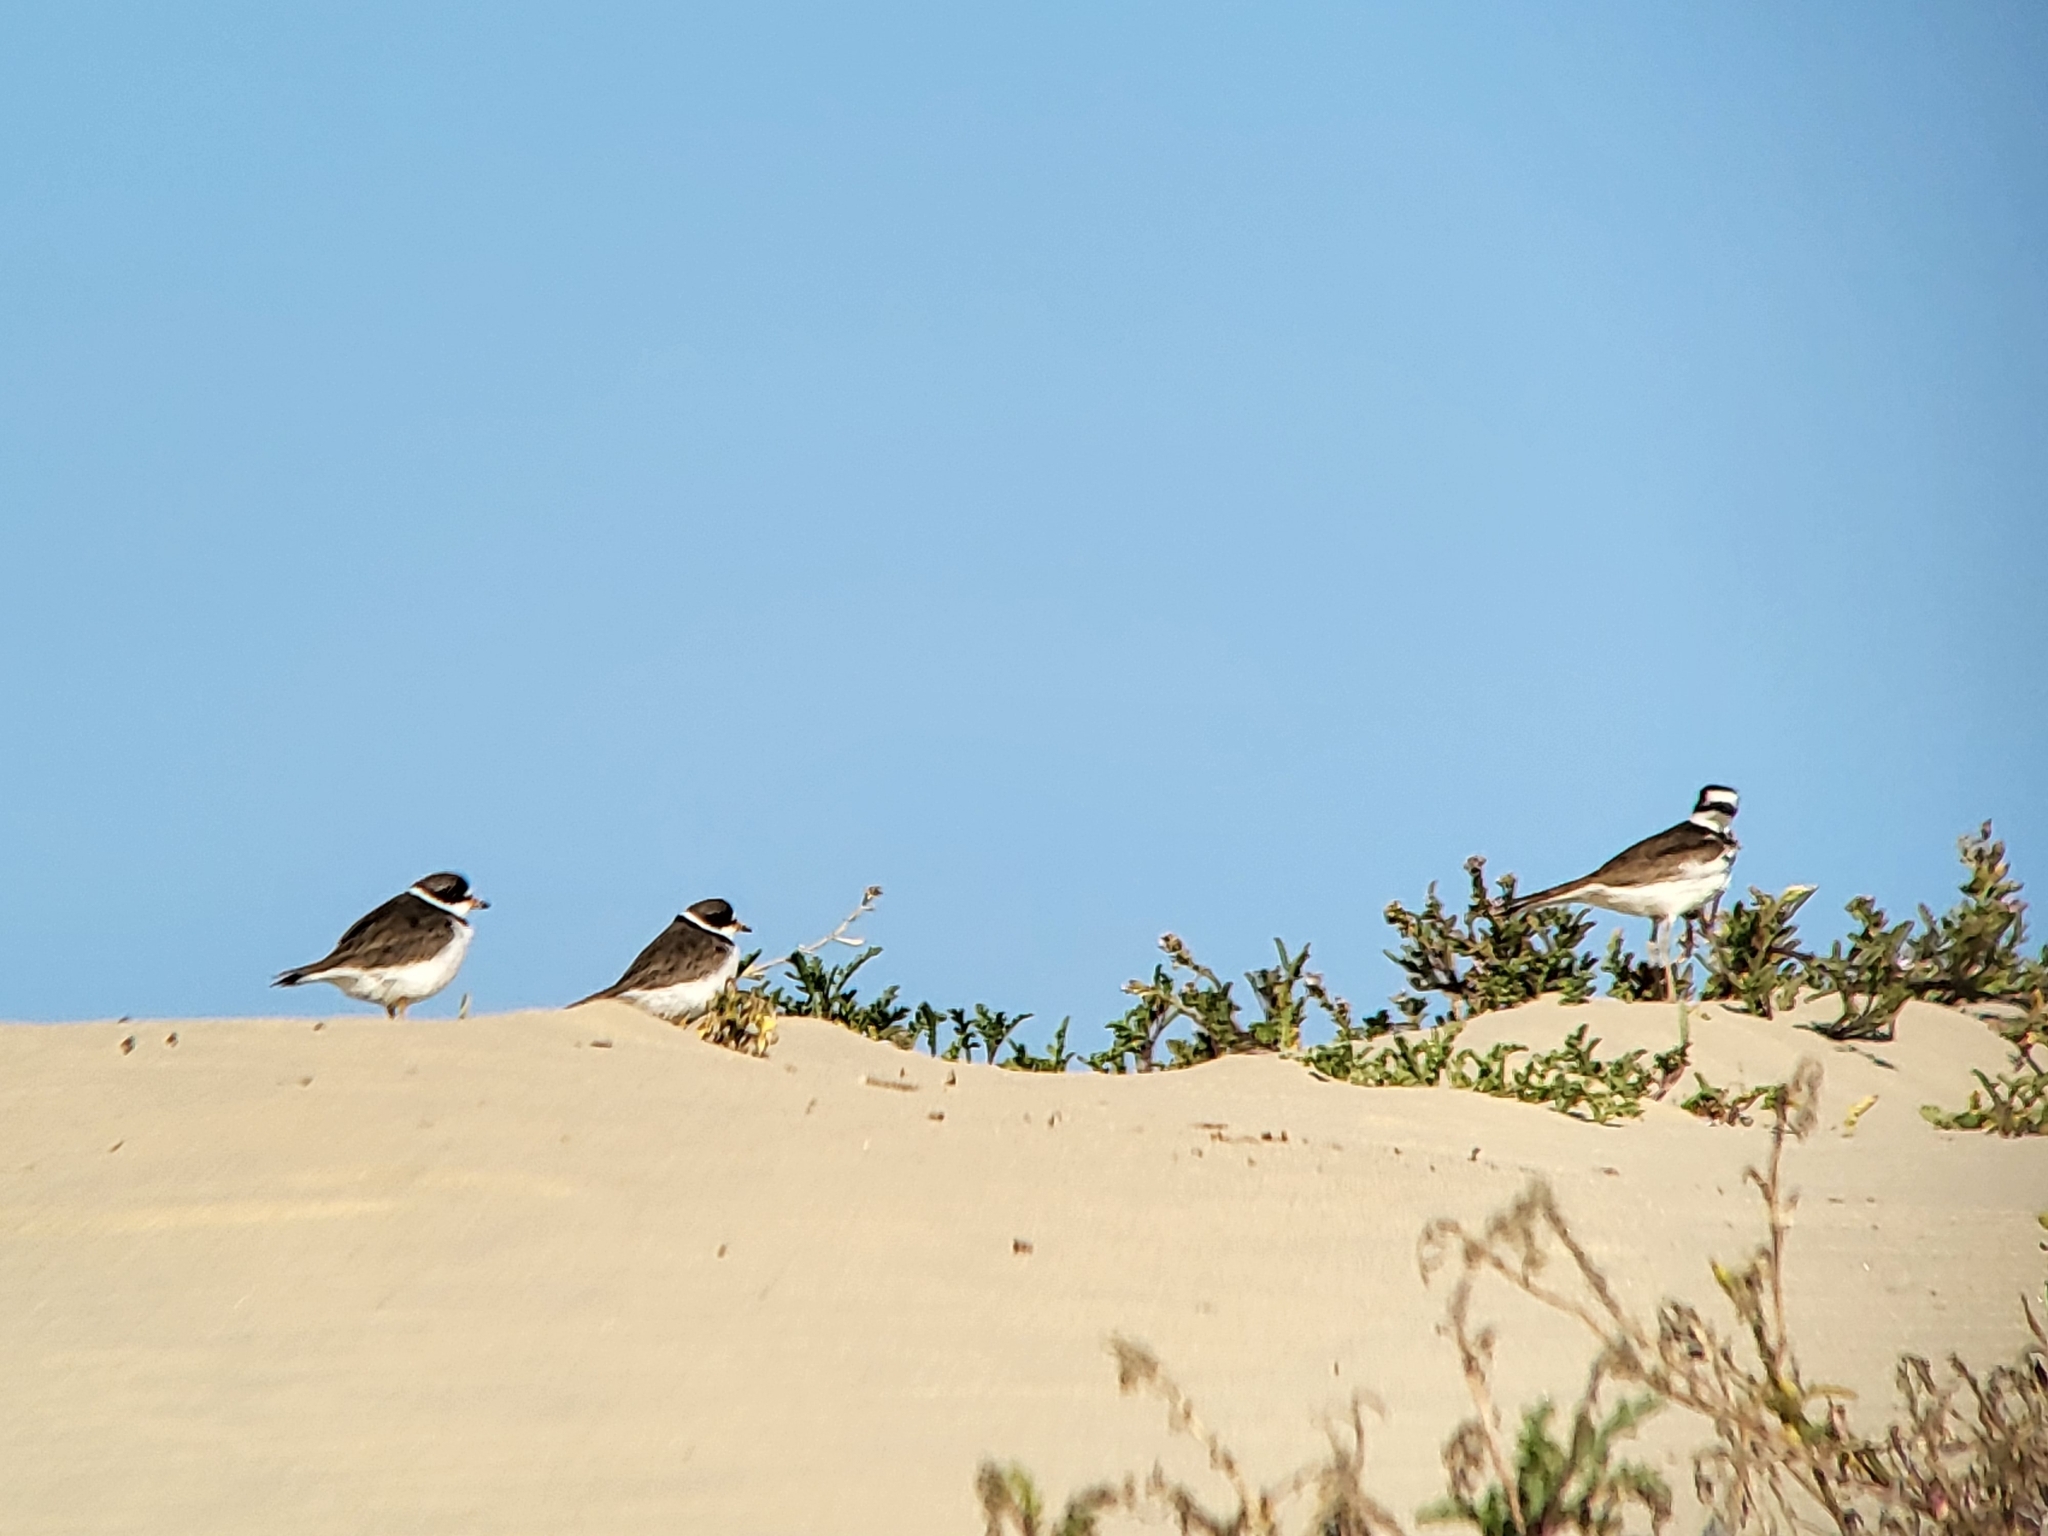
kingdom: Animalia
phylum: Chordata
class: Aves
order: Charadriiformes
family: Charadriidae
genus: Charadrius
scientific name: Charadrius vociferus
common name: Killdeer
